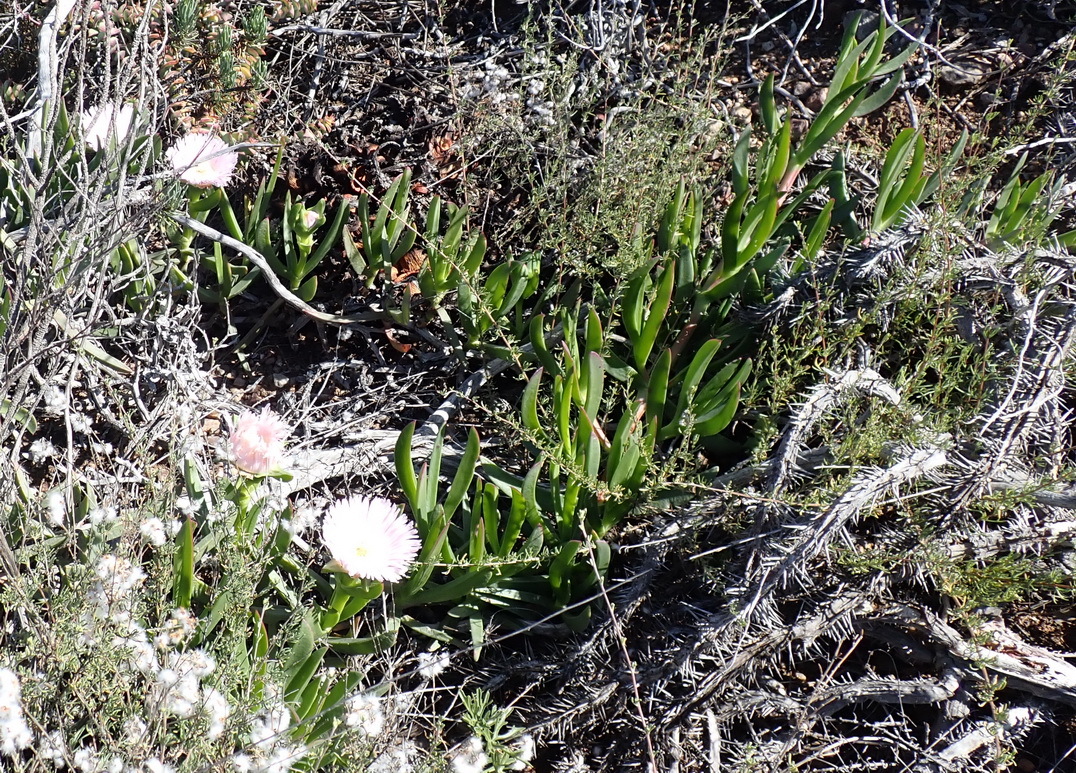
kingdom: Plantae
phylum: Tracheophyta
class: Magnoliopsida
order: Caryophyllales
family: Aizoaceae
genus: Carpobrotus
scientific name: Carpobrotus mellei
